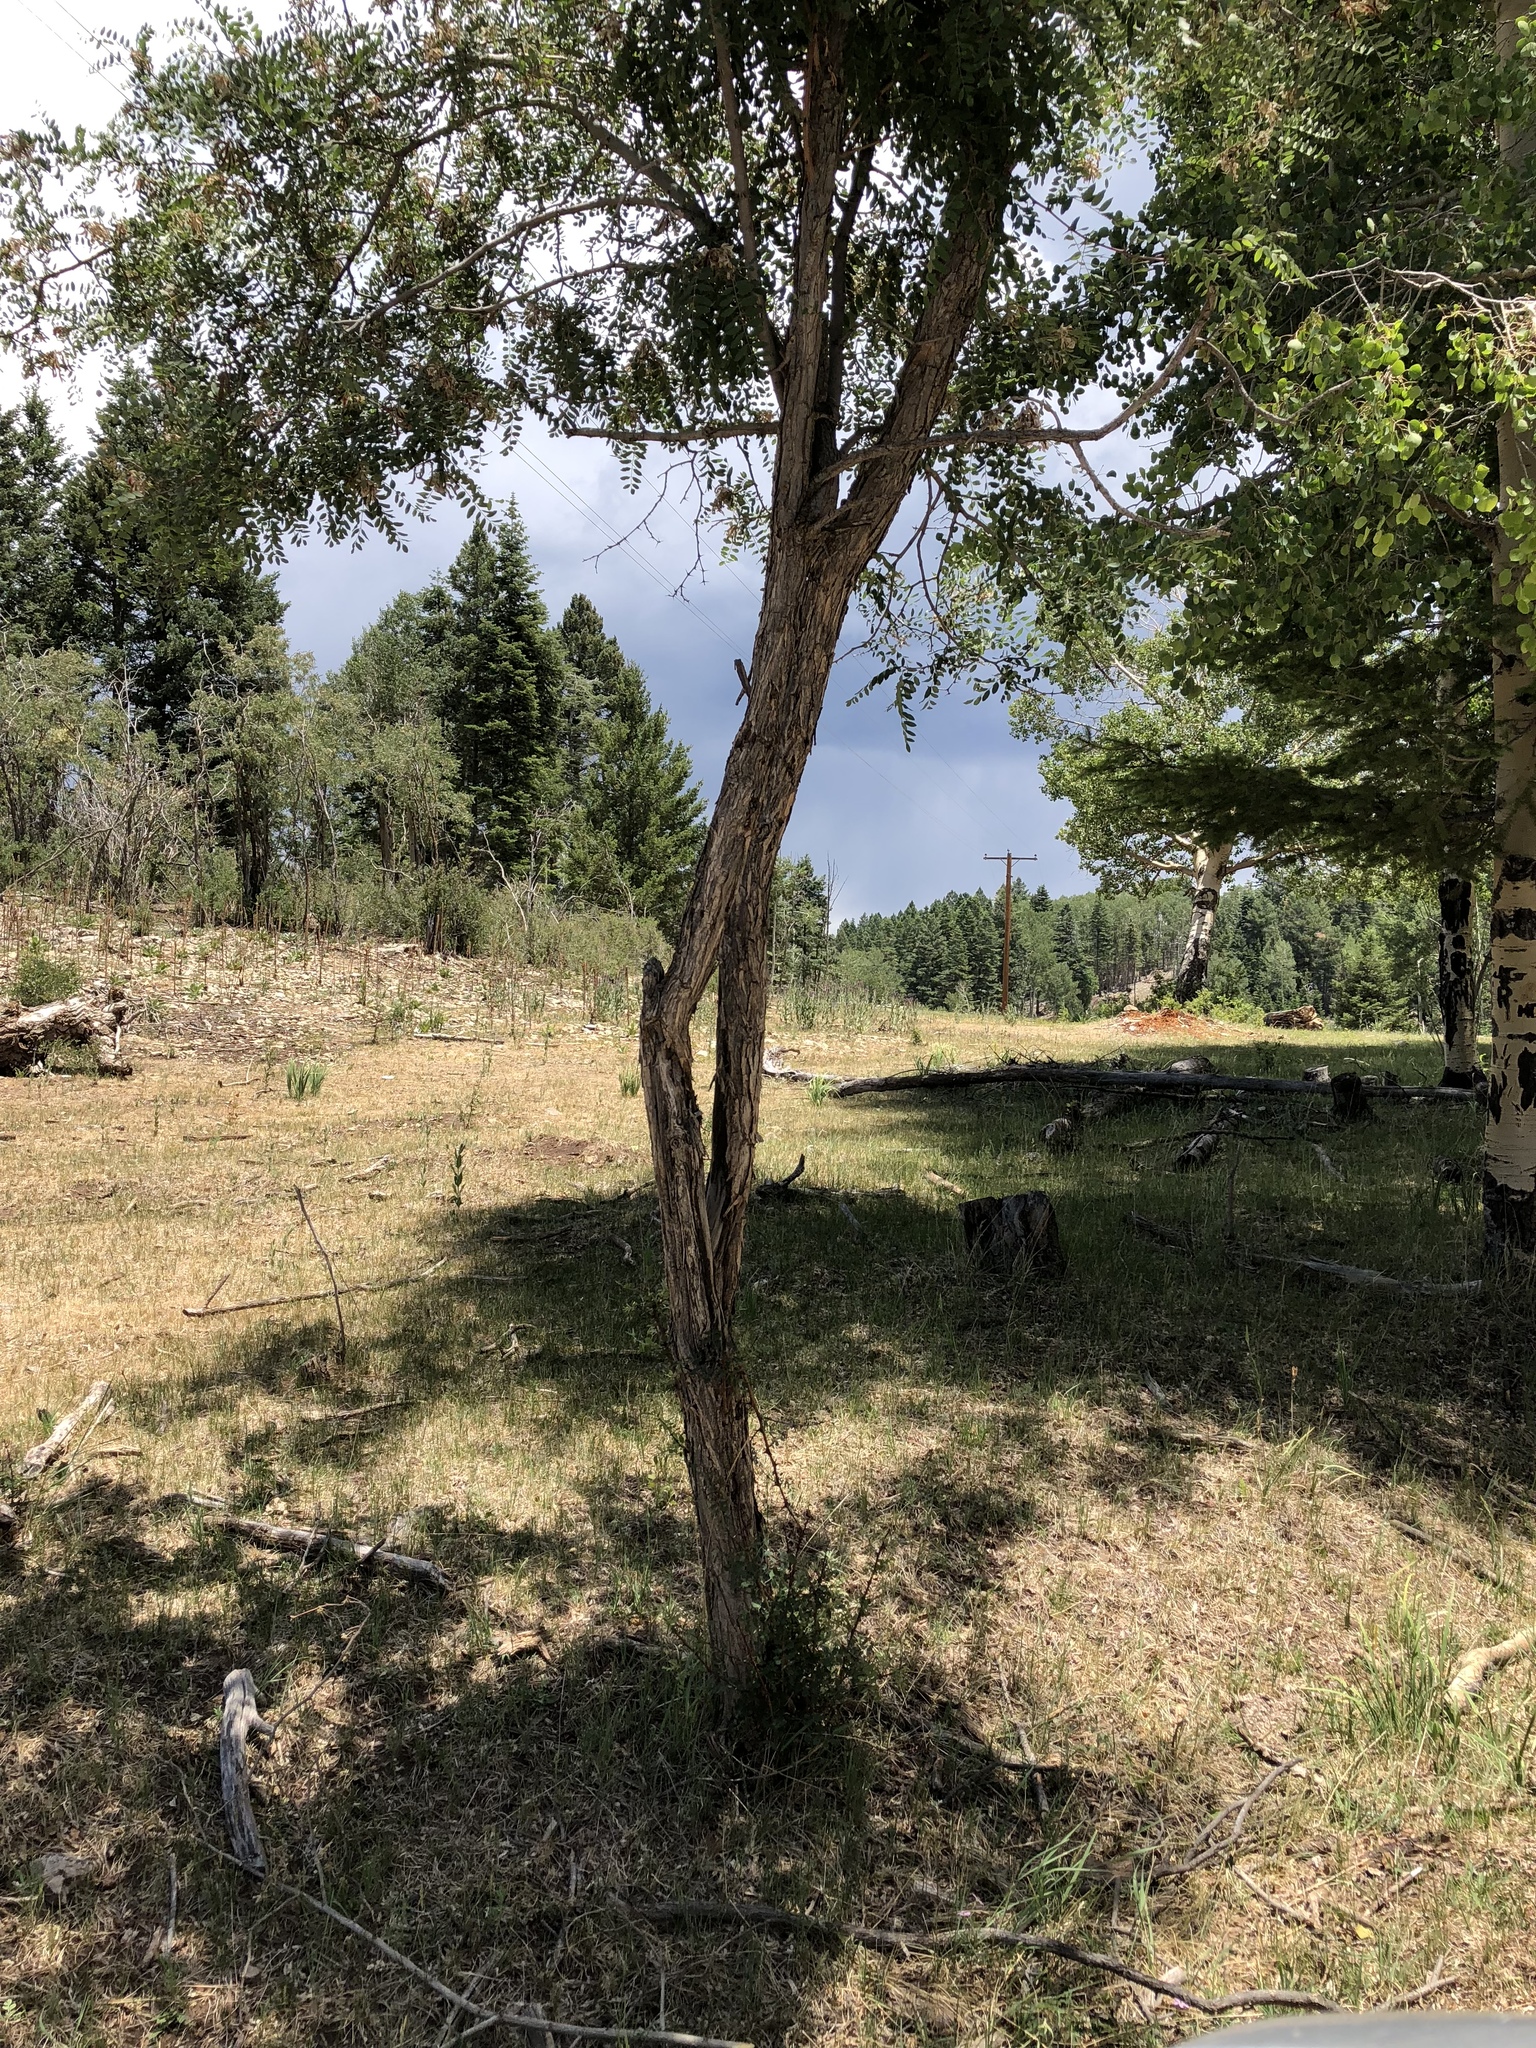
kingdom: Plantae
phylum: Tracheophyta
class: Magnoliopsida
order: Fabales
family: Fabaceae
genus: Robinia
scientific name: Robinia neomexicana
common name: New mexico locust
